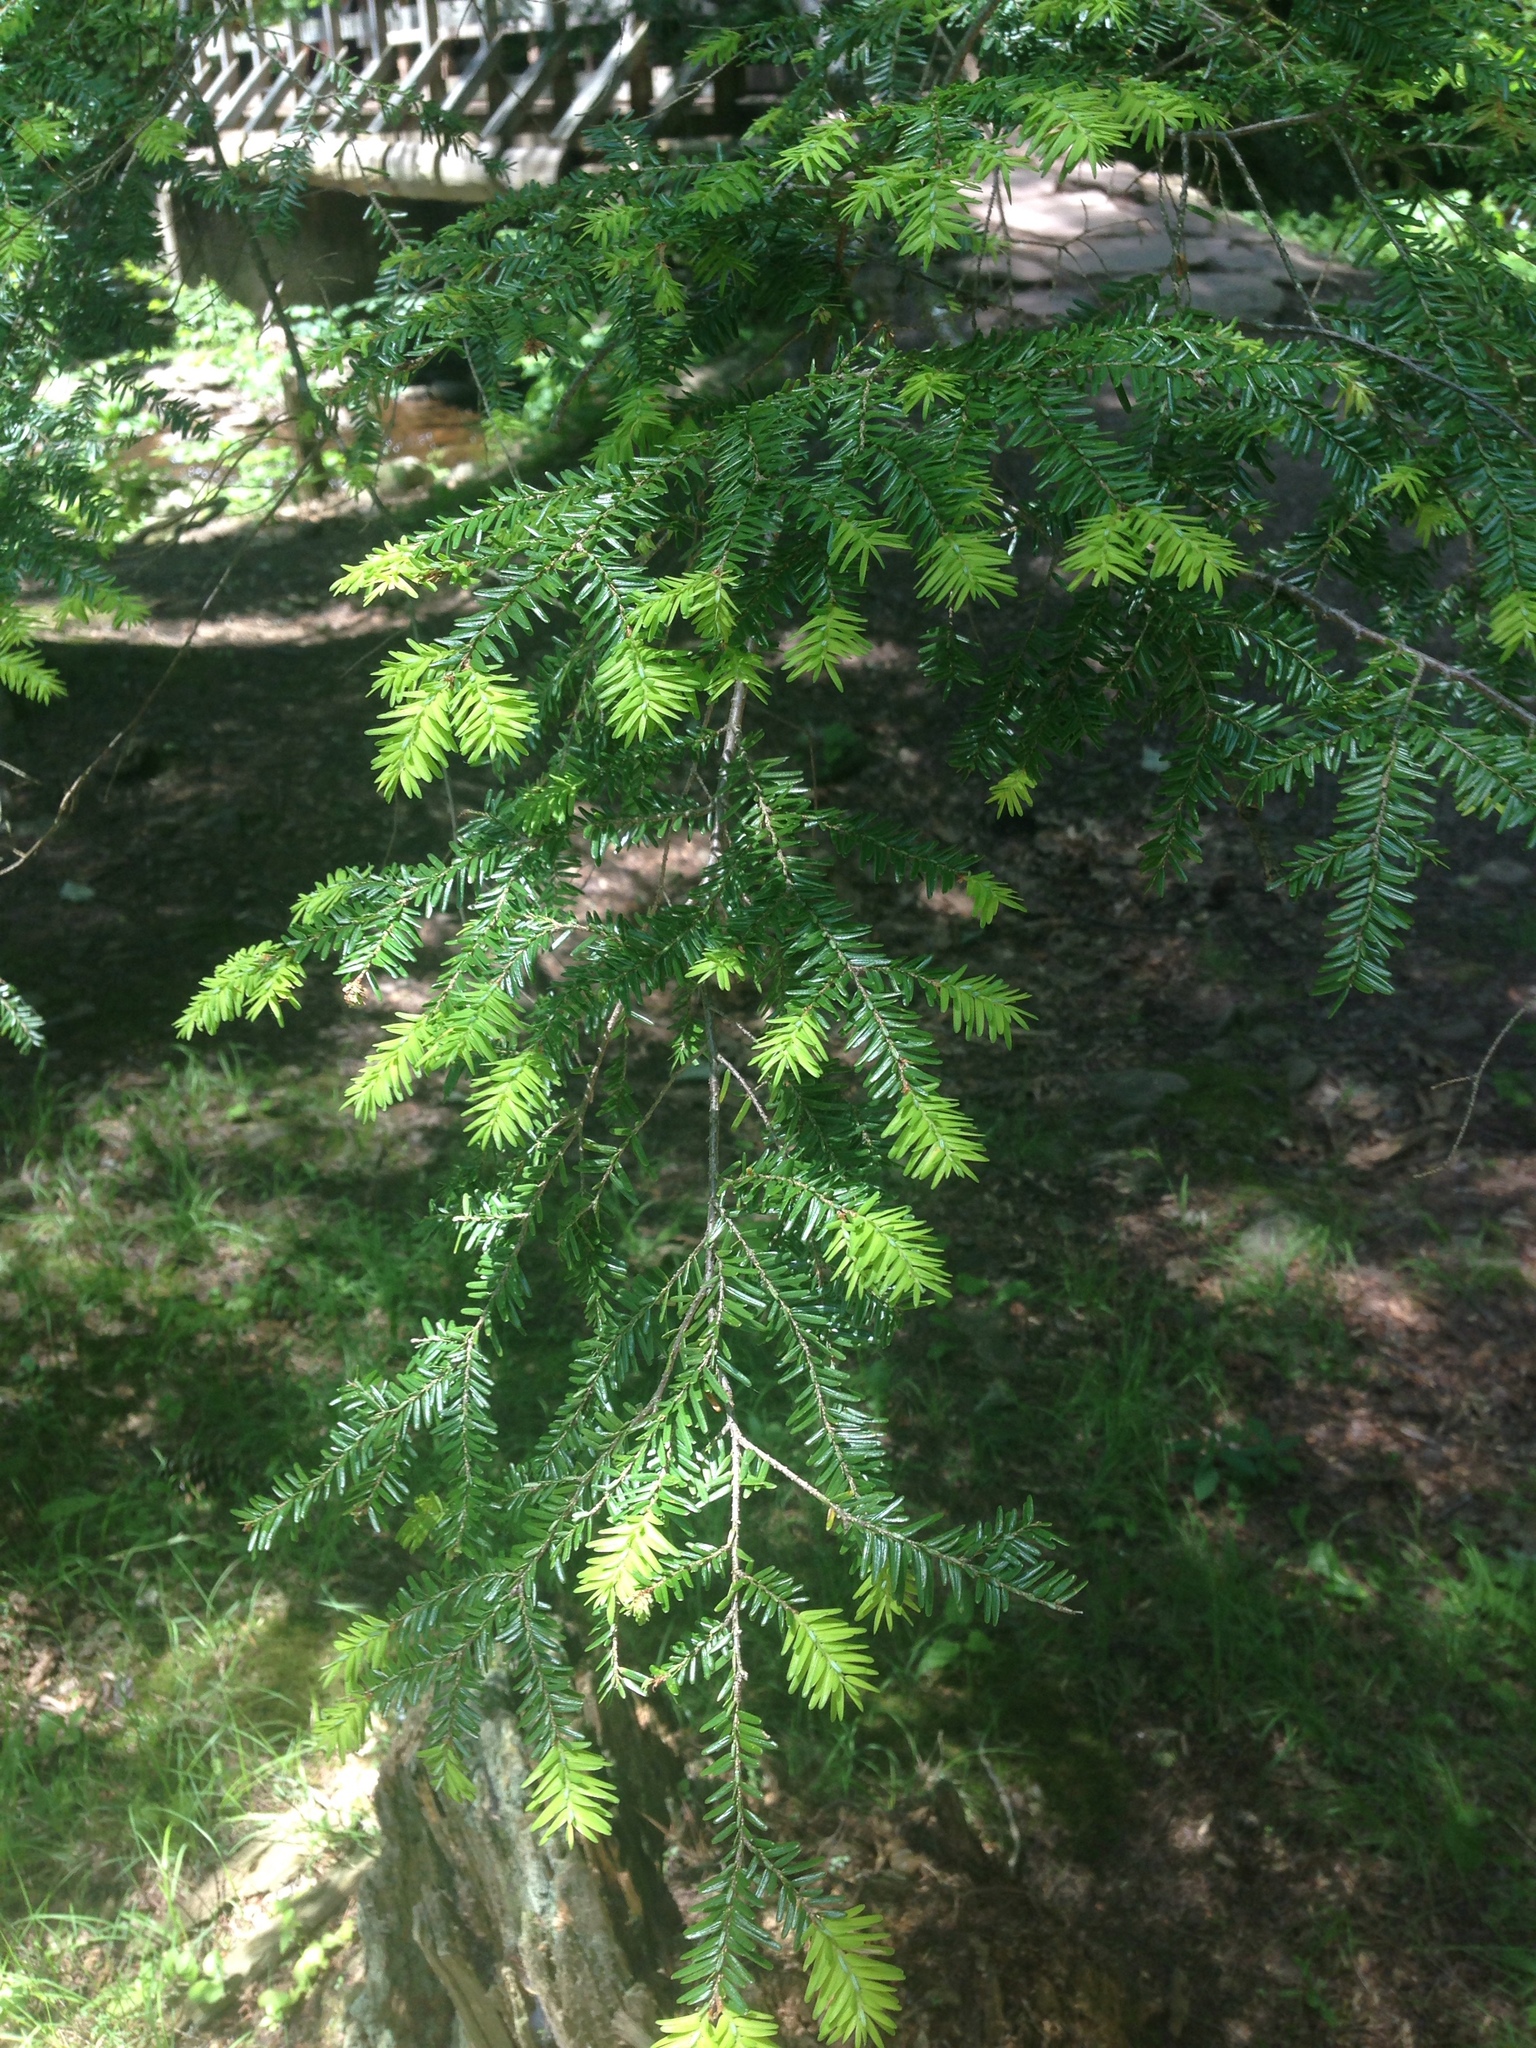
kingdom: Plantae
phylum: Tracheophyta
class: Pinopsida
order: Pinales
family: Pinaceae
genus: Tsuga
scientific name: Tsuga canadensis
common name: Eastern hemlock
